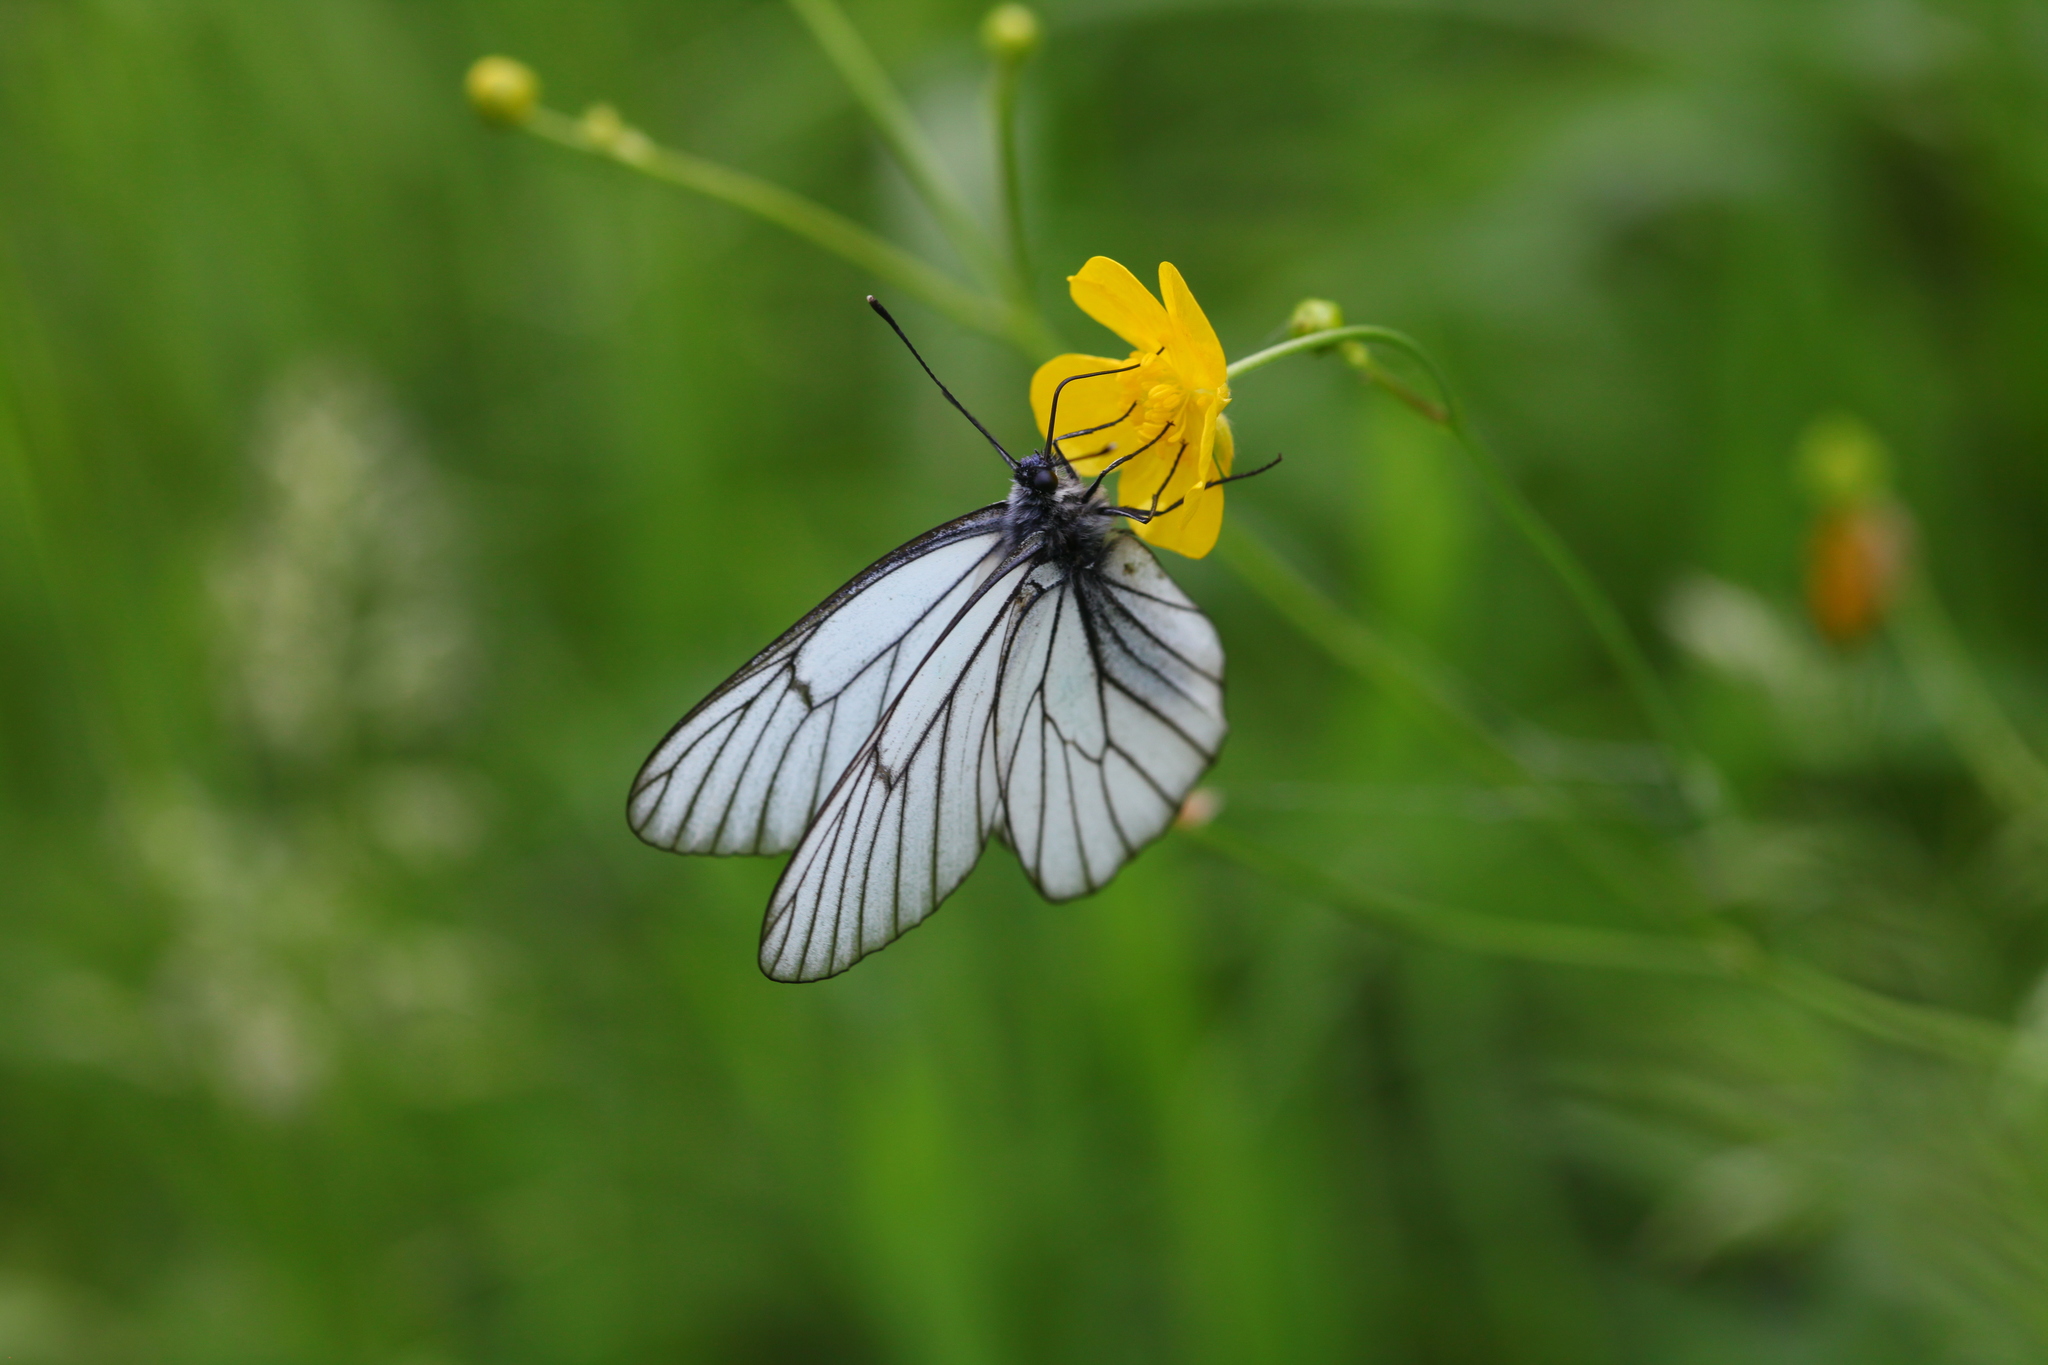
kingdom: Animalia
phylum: Arthropoda
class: Insecta
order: Lepidoptera
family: Pieridae
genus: Aporia
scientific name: Aporia crataegi
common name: Black-veined white
